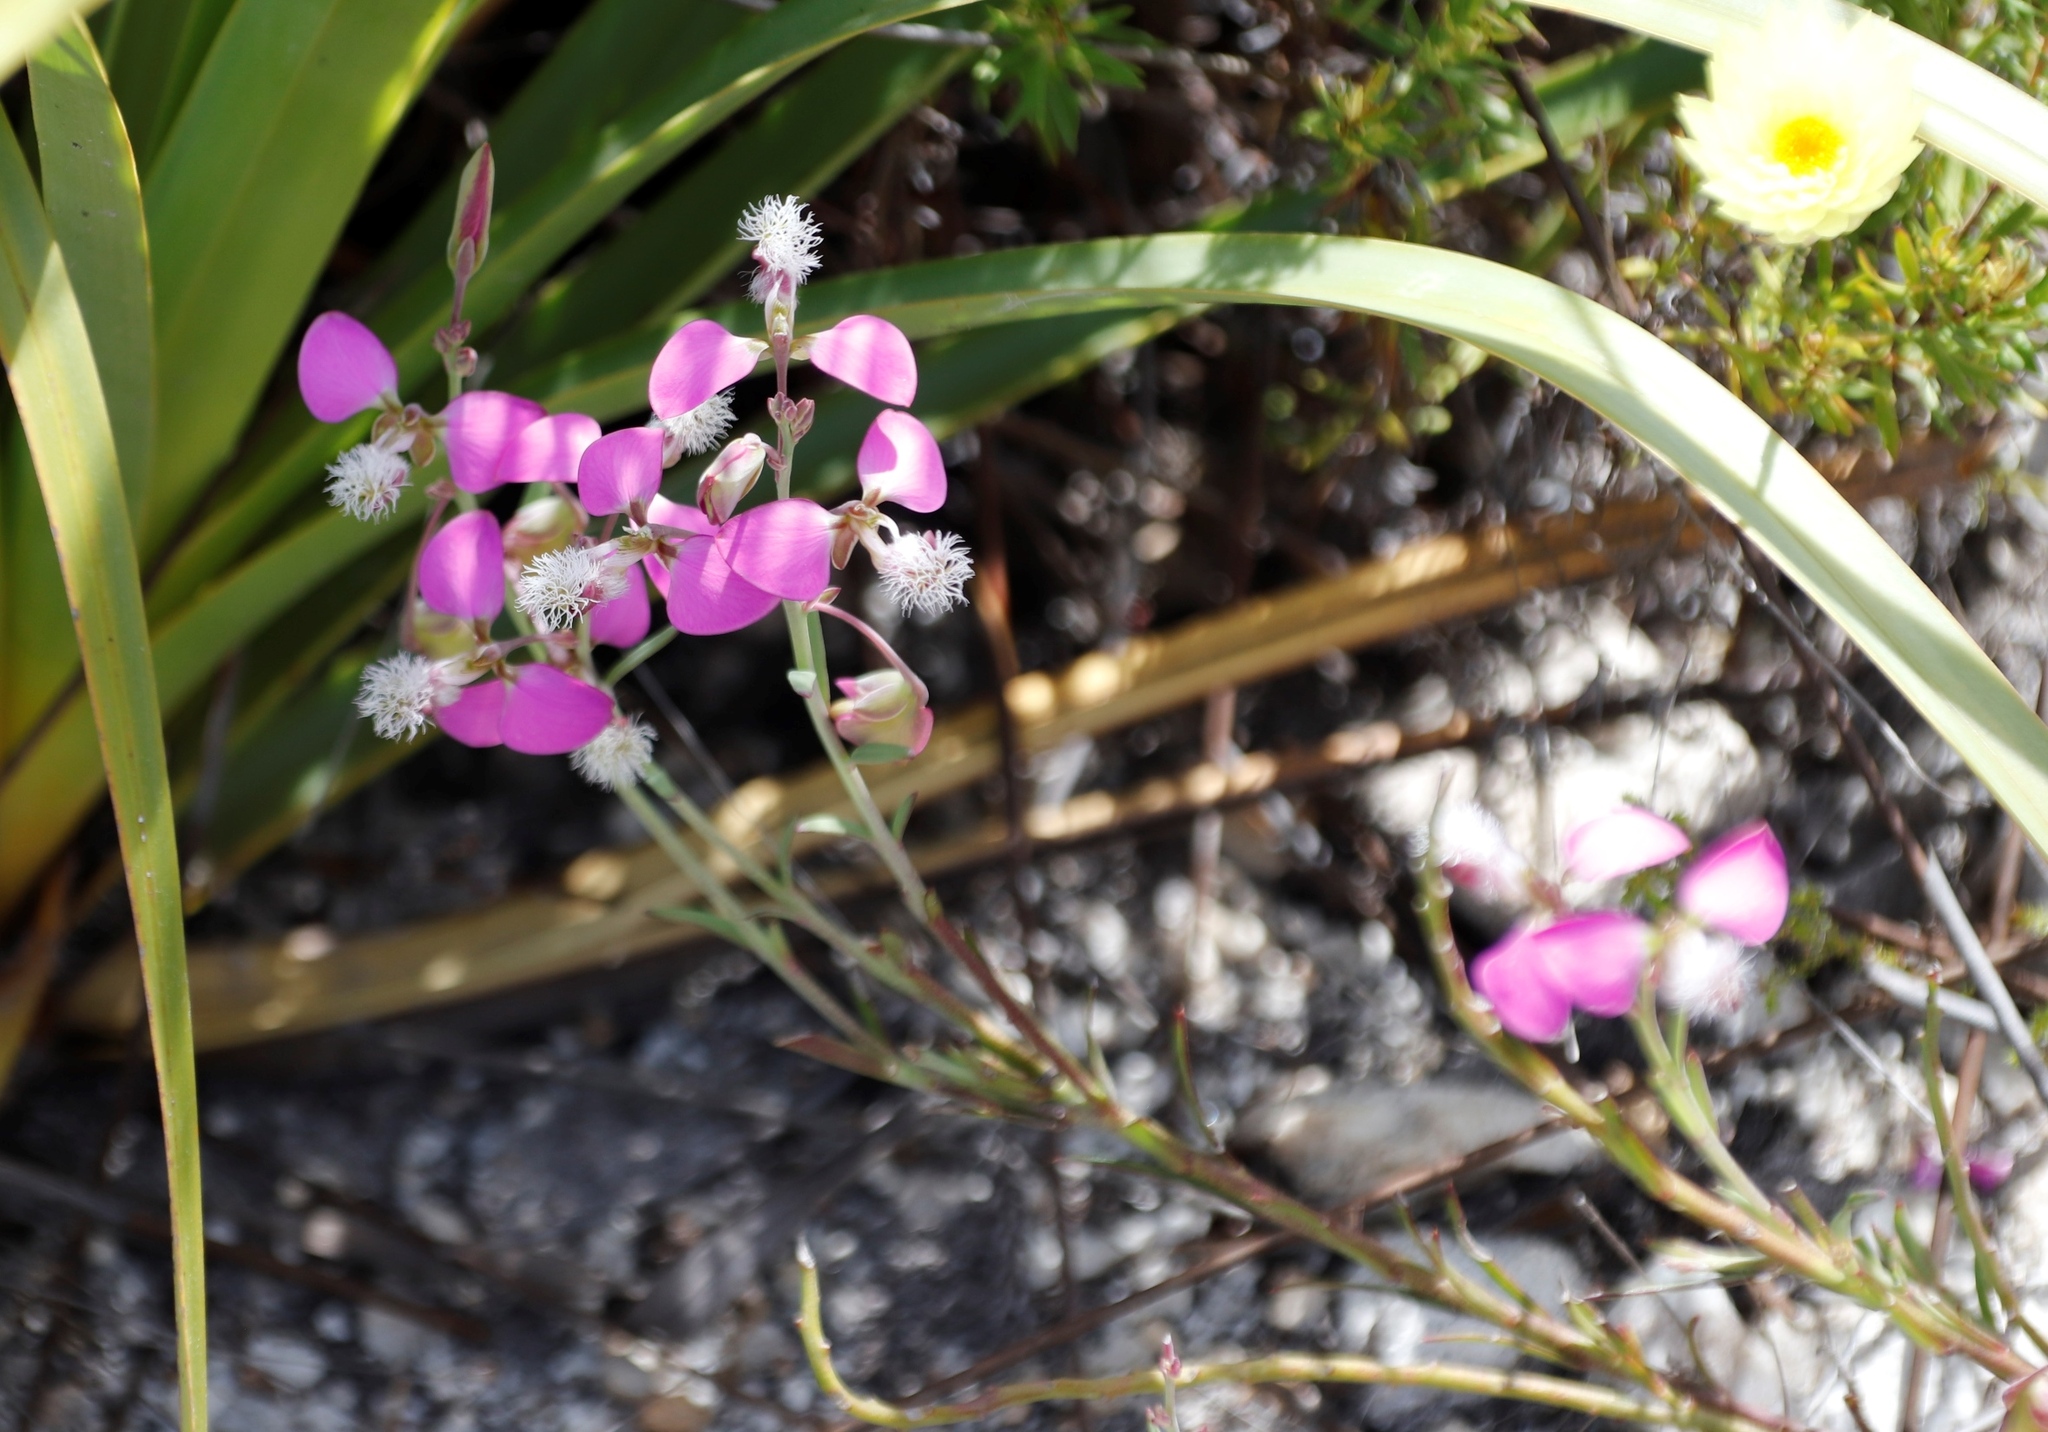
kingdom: Plantae
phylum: Tracheophyta
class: Magnoliopsida
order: Fabales
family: Polygalaceae
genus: Polygala
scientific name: Polygala bracteolata
